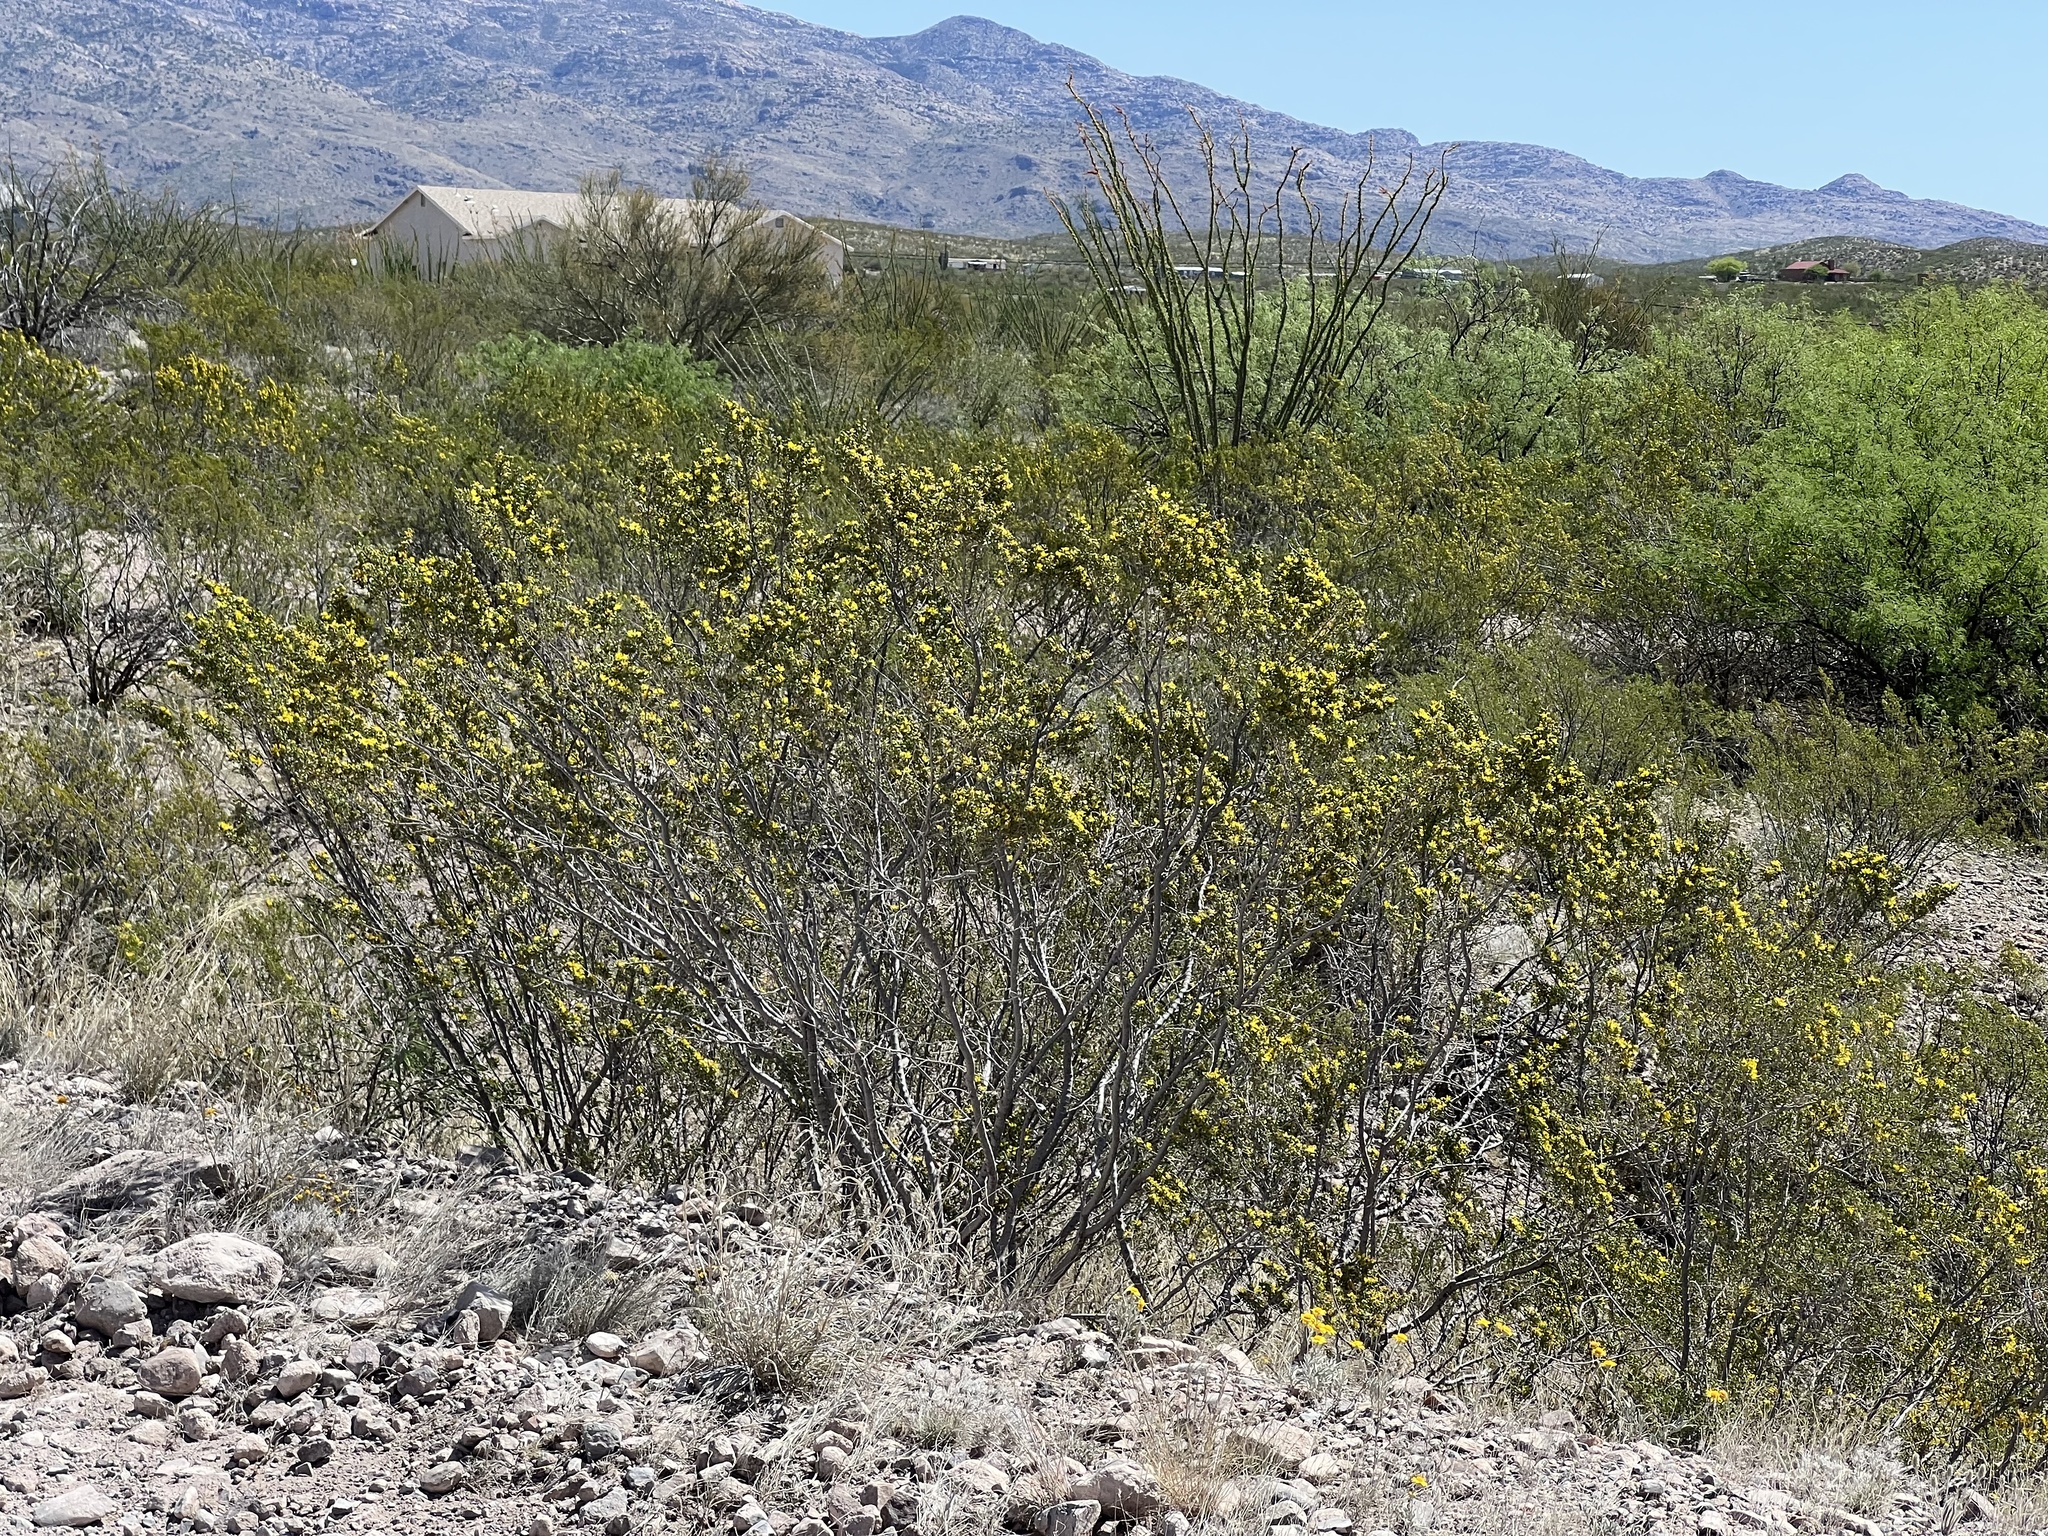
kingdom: Plantae
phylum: Tracheophyta
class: Magnoliopsida
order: Zygophyllales
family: Zygophyllaceae
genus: Larrea
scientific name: Larrea tridentata
